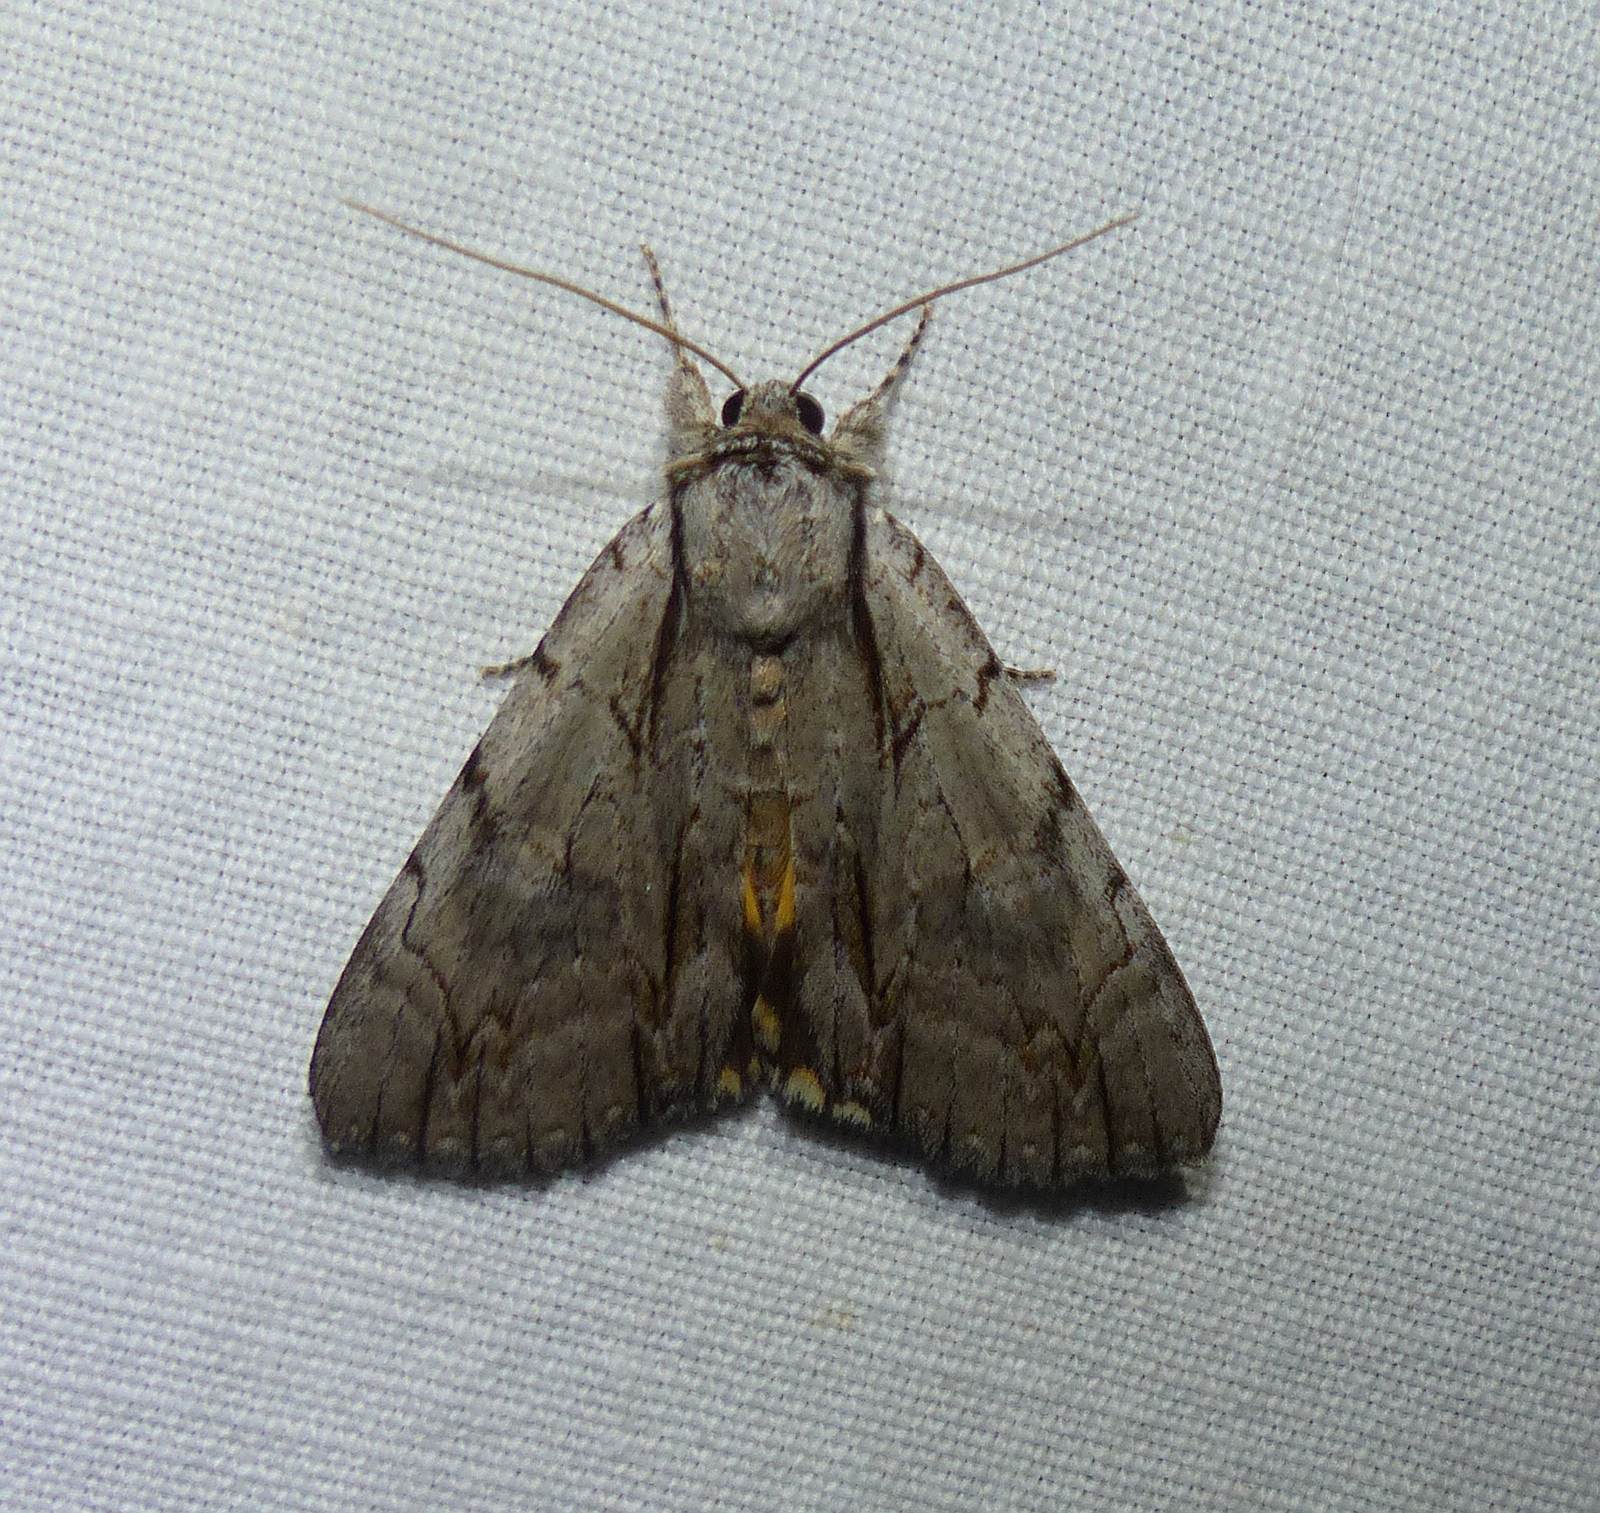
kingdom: Animalia
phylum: Arthropoda
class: Insecta
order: Lepidoptera
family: Erebidae
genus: Catocala
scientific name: Catocala clintonii
